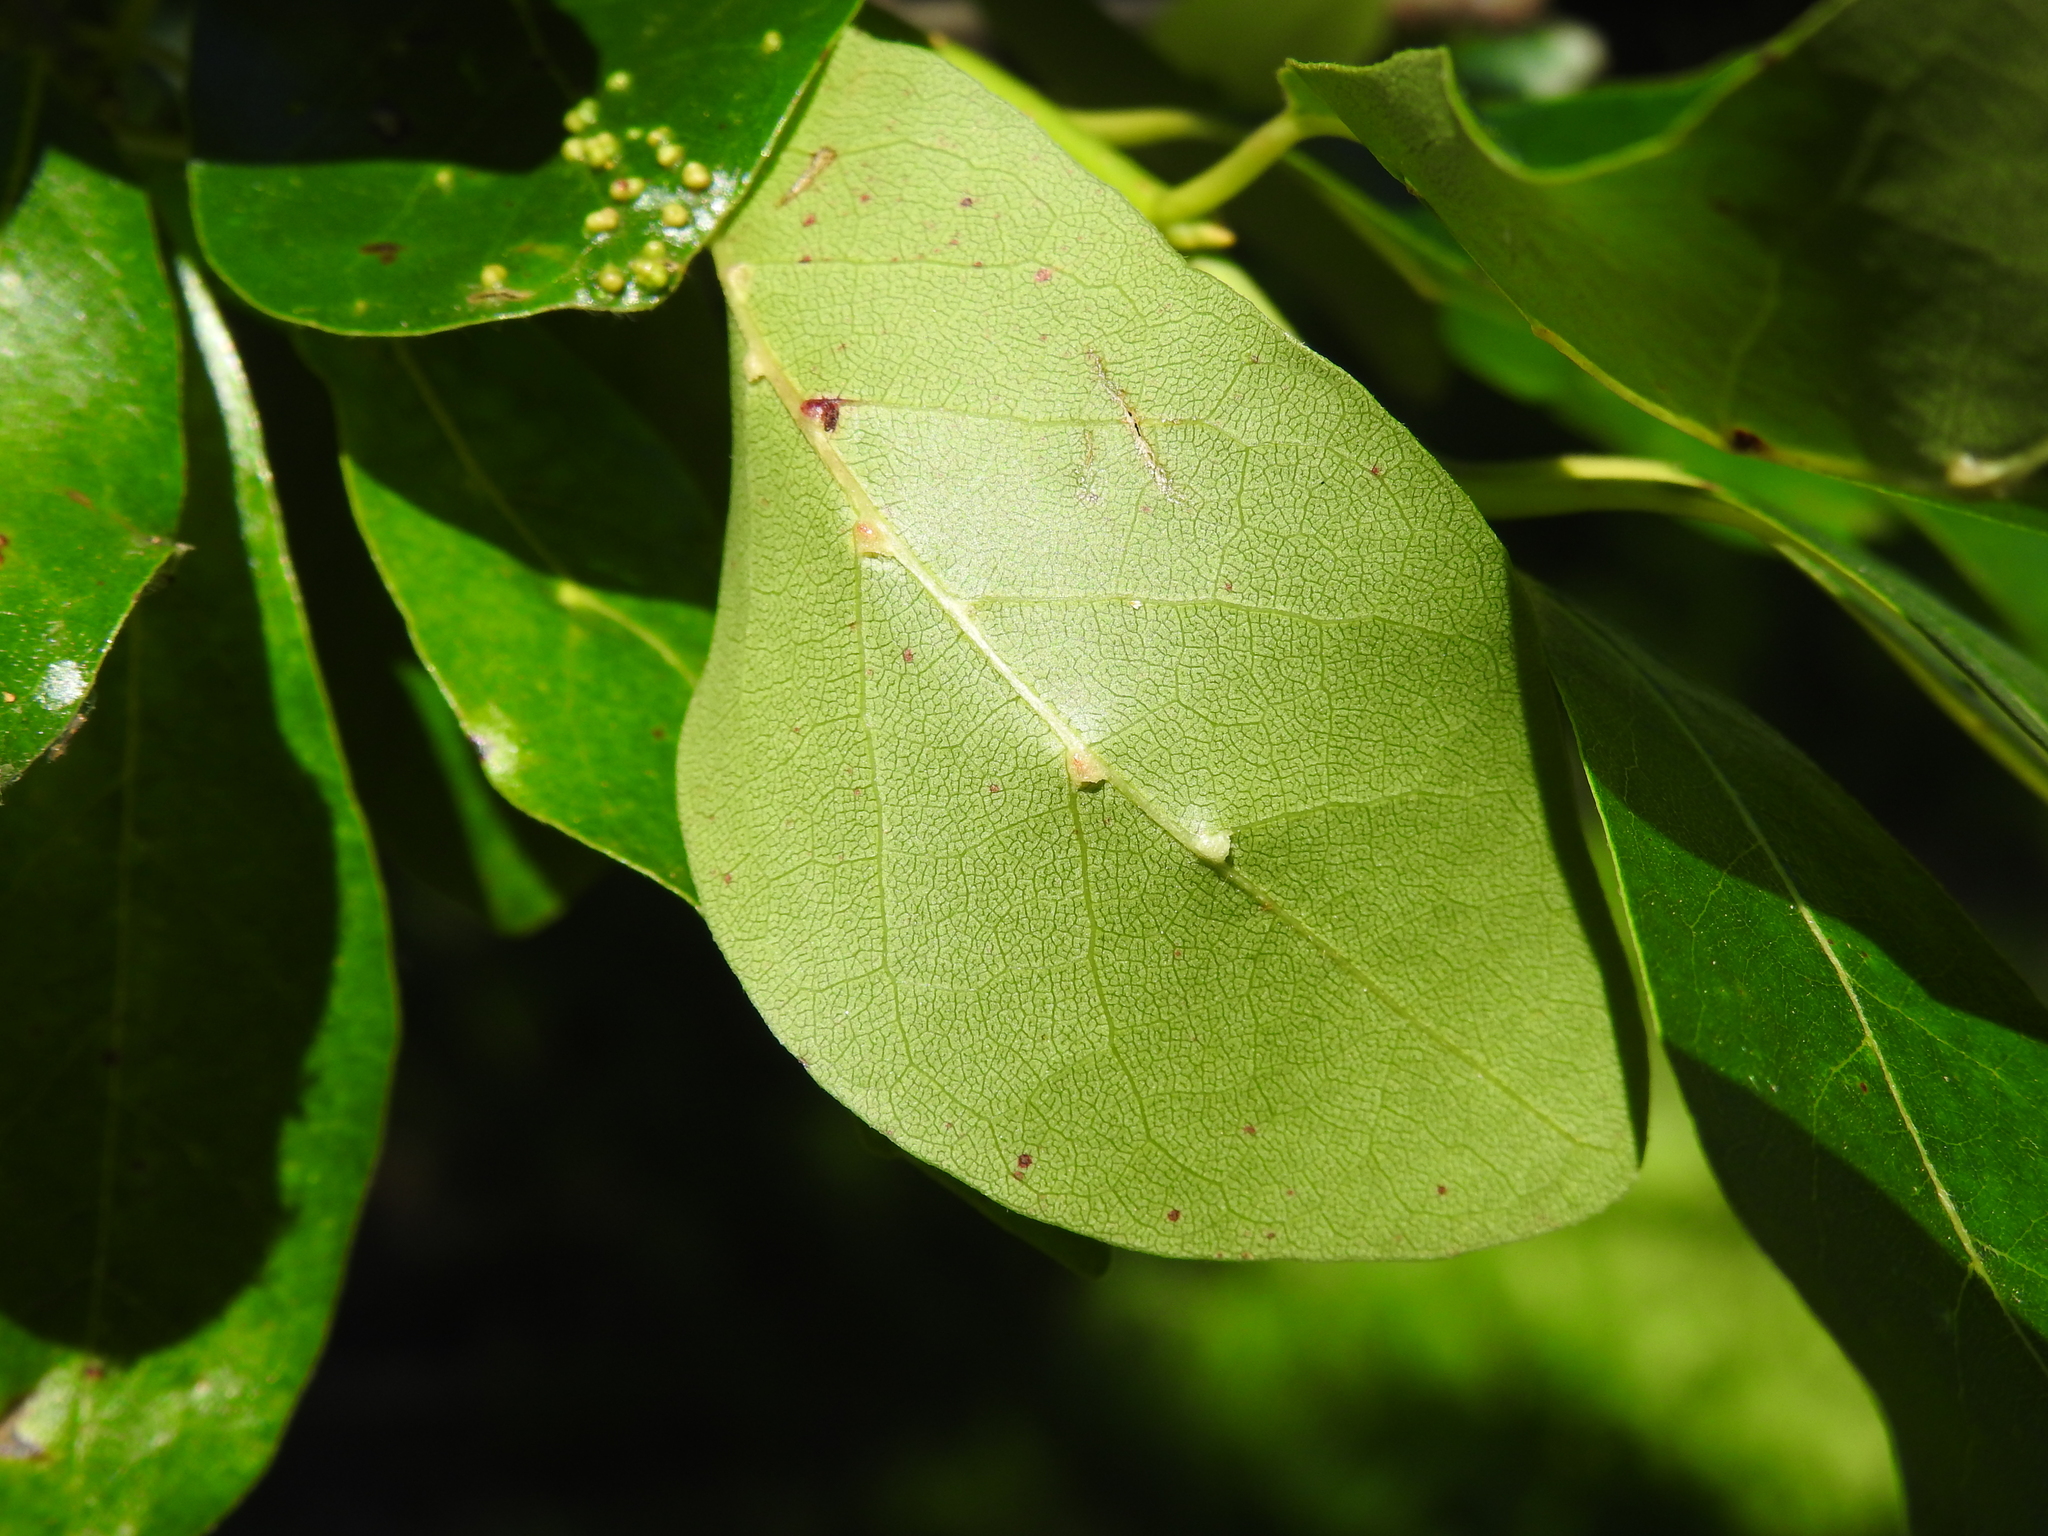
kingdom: Animalia
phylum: Arthropoda
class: Arachnida
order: Trombidiformes
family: Eriophyidae
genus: Cenalox
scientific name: Cenalox
